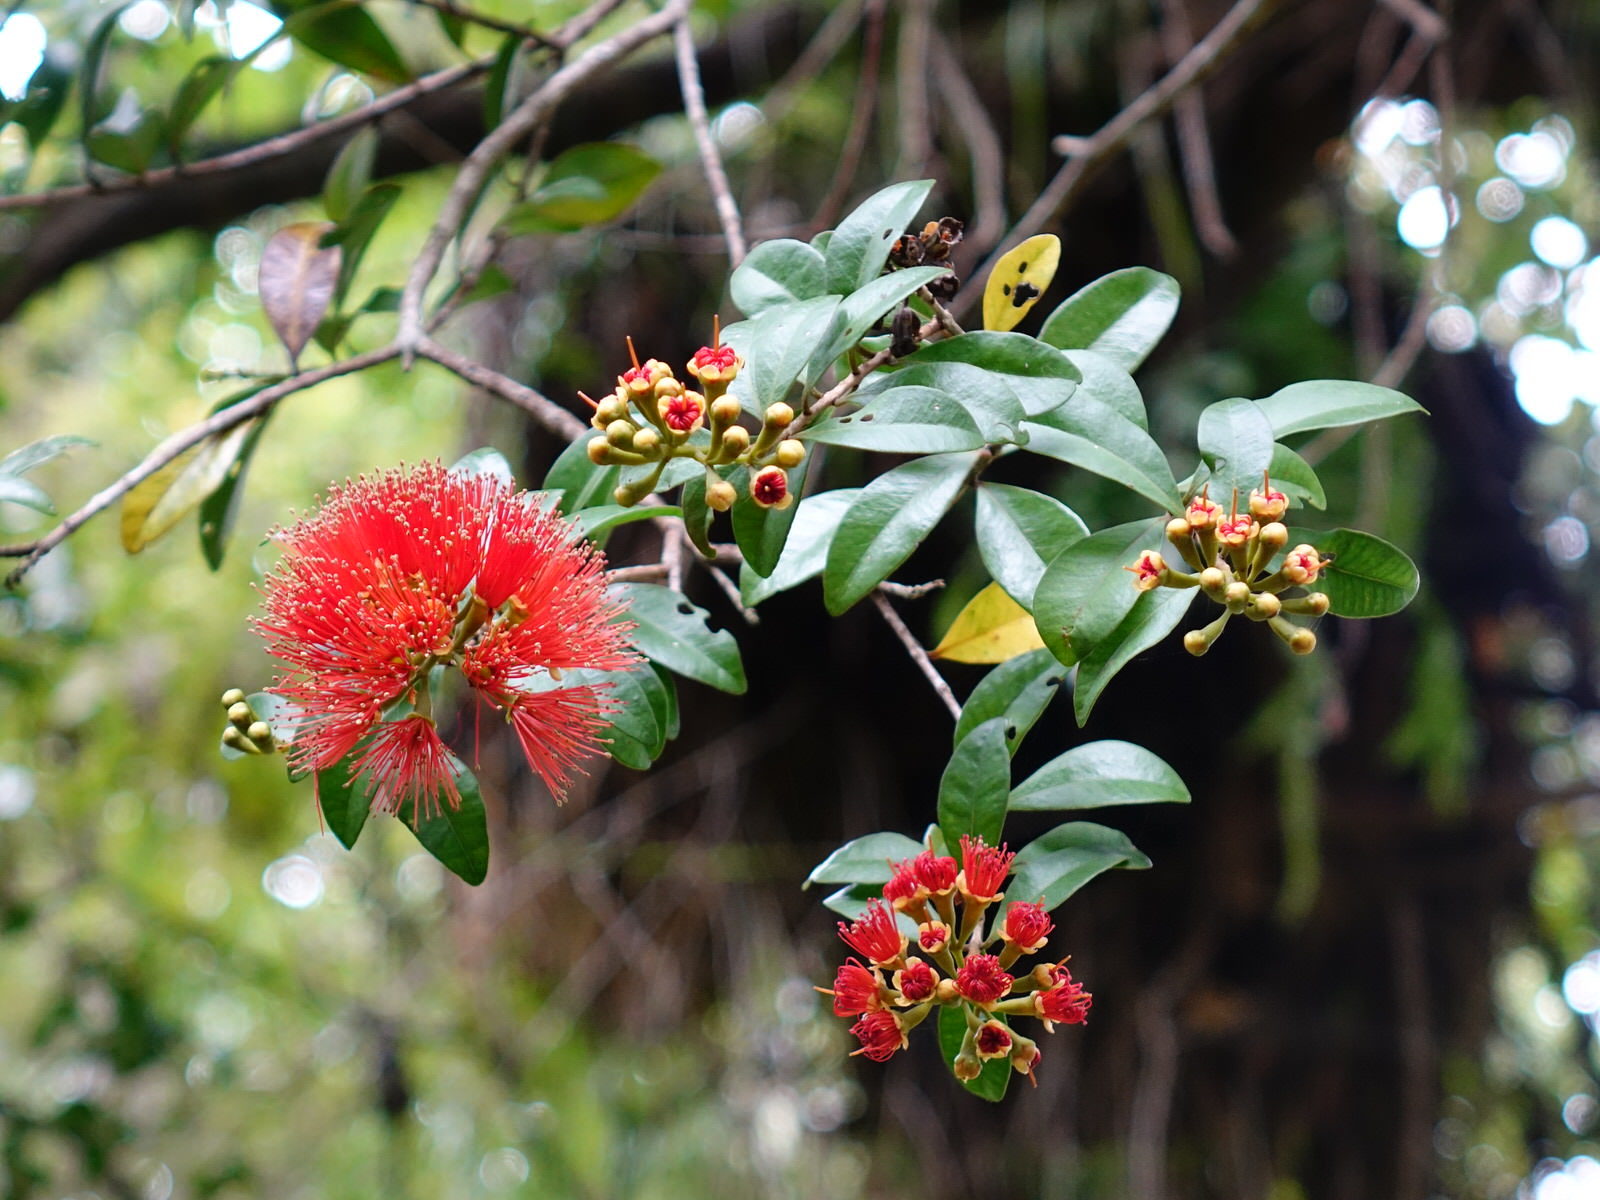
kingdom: Plantae
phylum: Tracheophyta
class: Magnoliopsida
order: Myrtales
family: Myrtaceae
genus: Metrosideros
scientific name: Metrosideros fulgens
